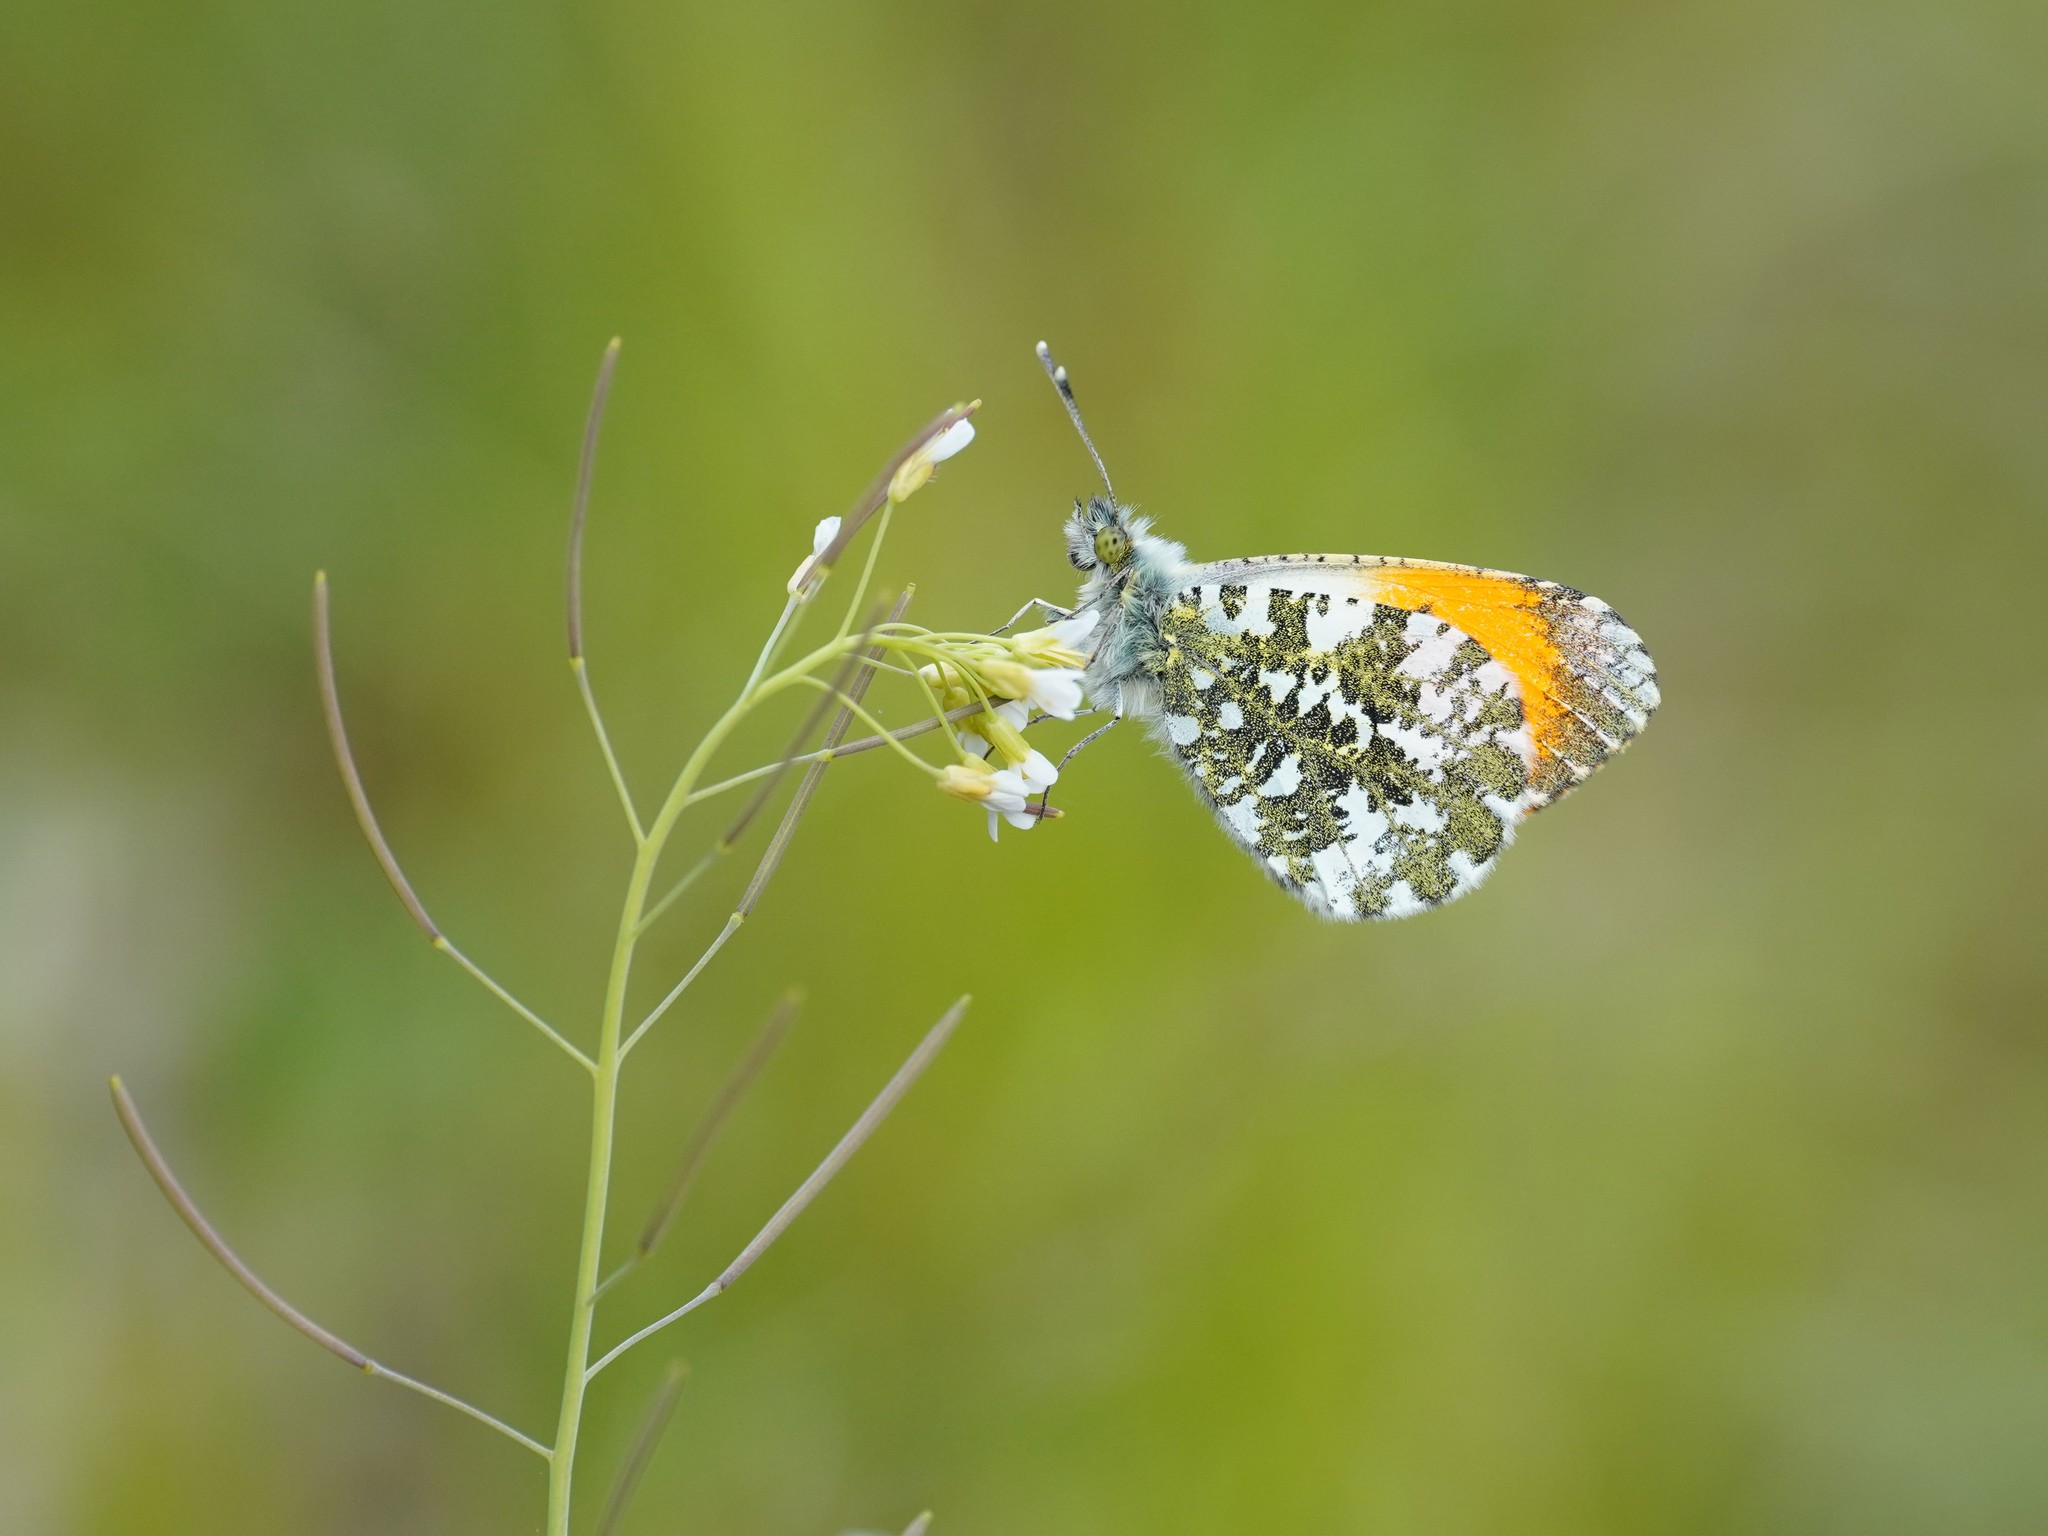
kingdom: Animalia
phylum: Arthropoda
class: Insecta
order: Lepidoptera
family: Pieridae
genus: Anthocharis
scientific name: Anthocharis cardamines
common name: Orange-tip
